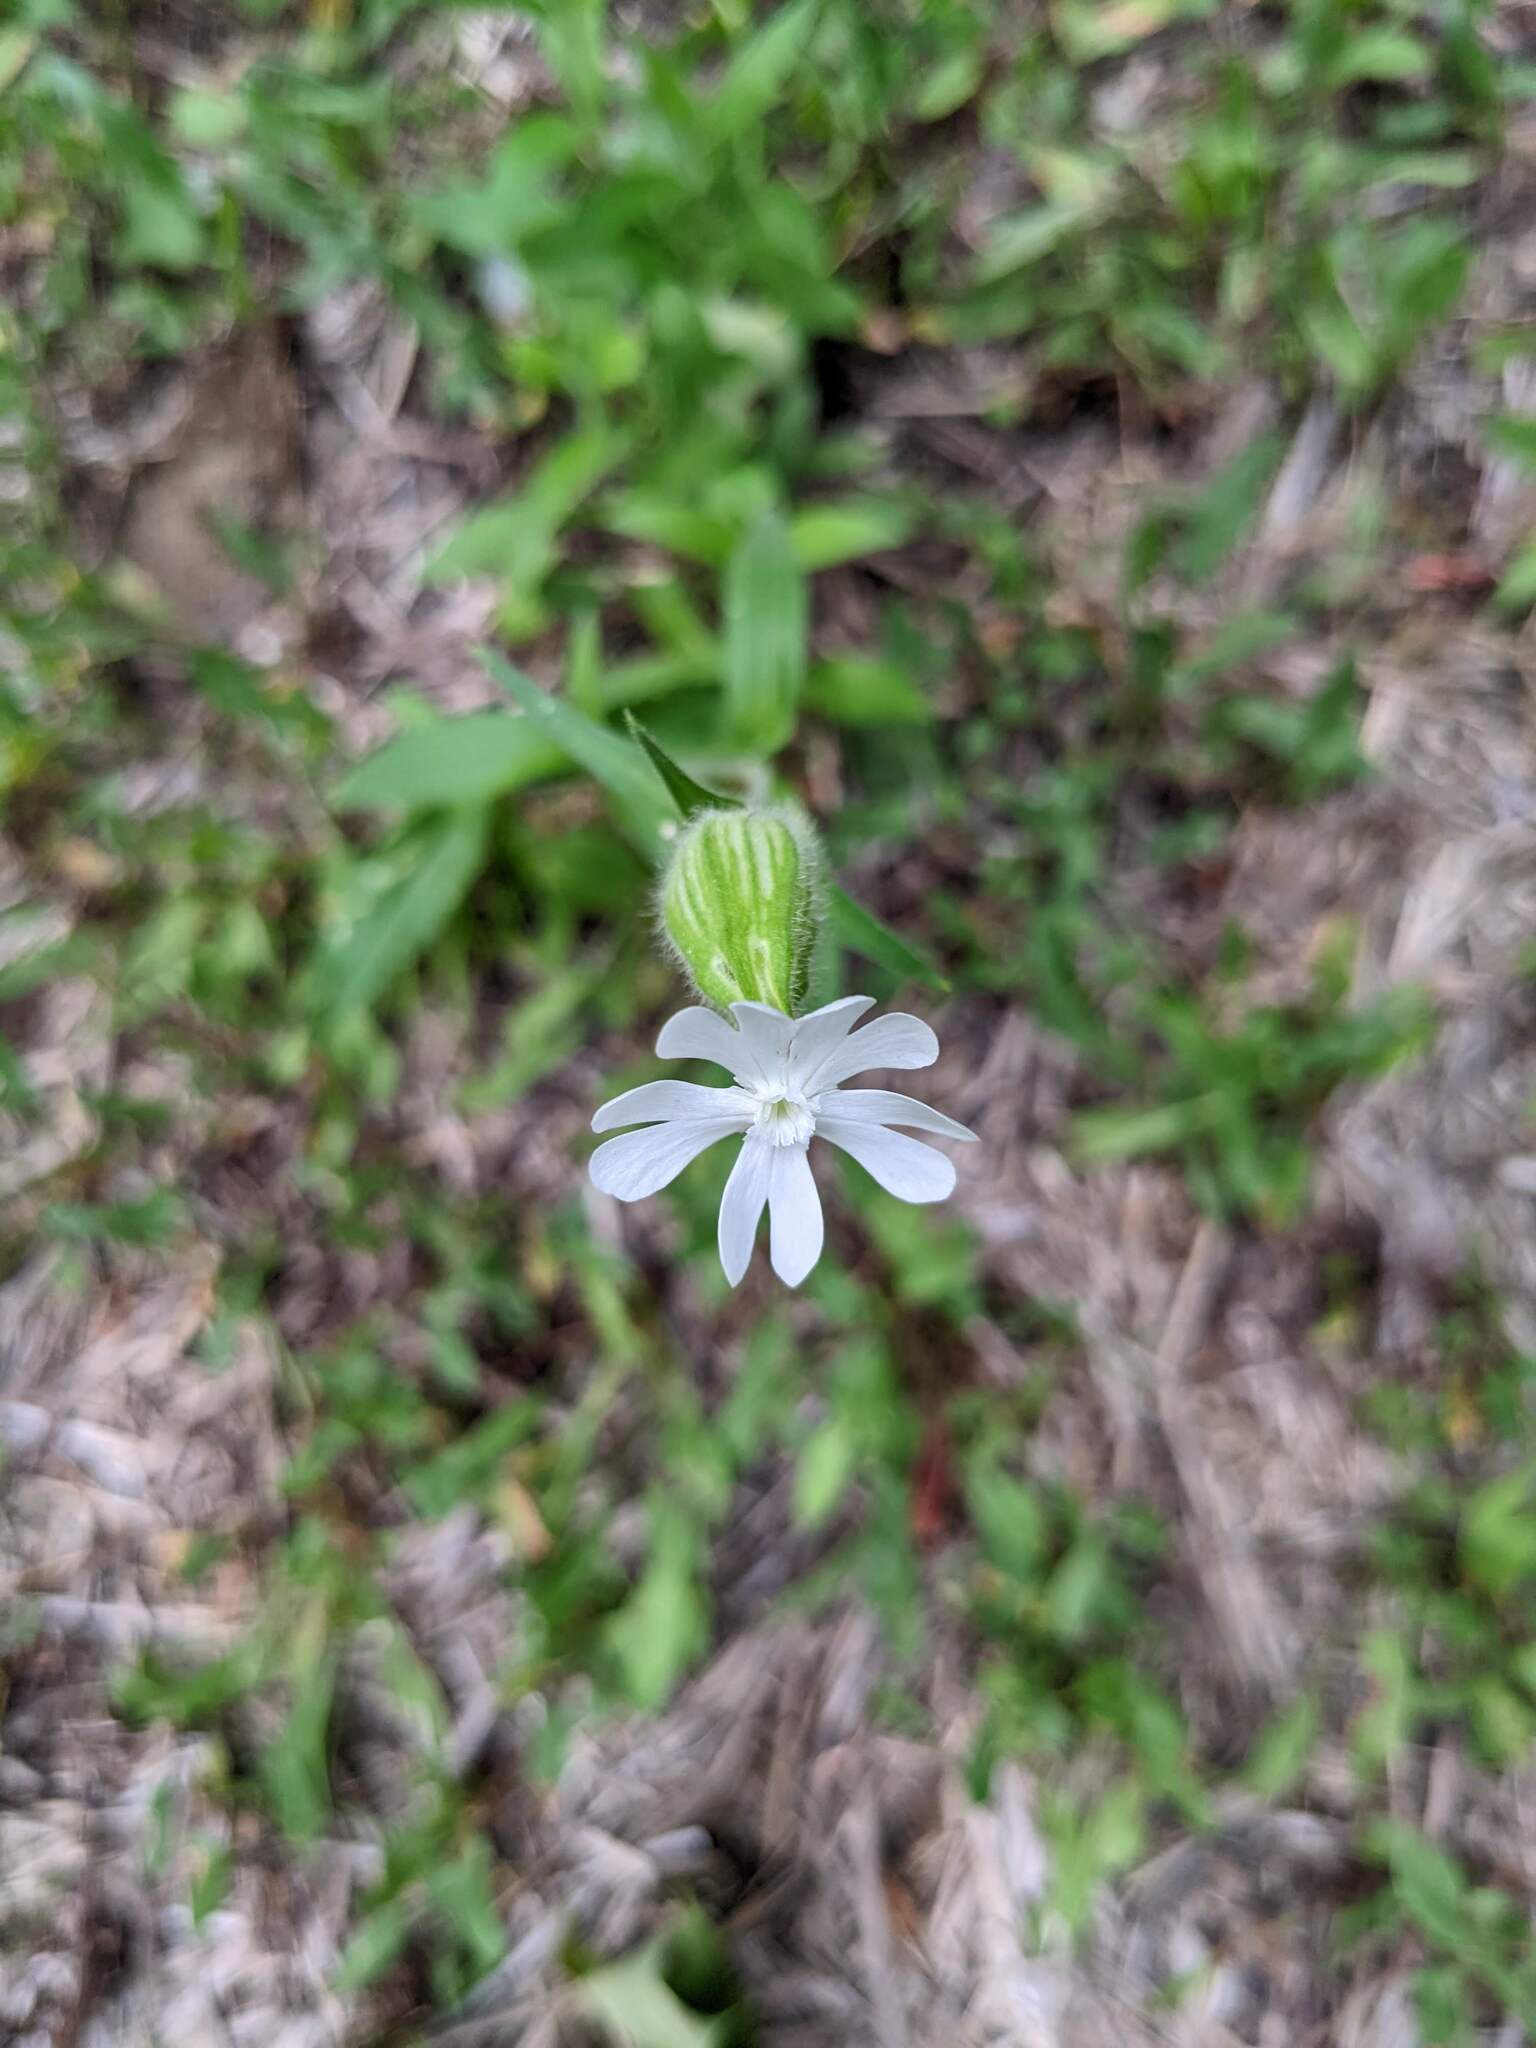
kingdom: Plantae
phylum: Tracheophyta
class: Magnoliopsida
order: Caryophyllales
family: Caryophyllaceae
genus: Silene
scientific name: Silene latifolia
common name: White campion
